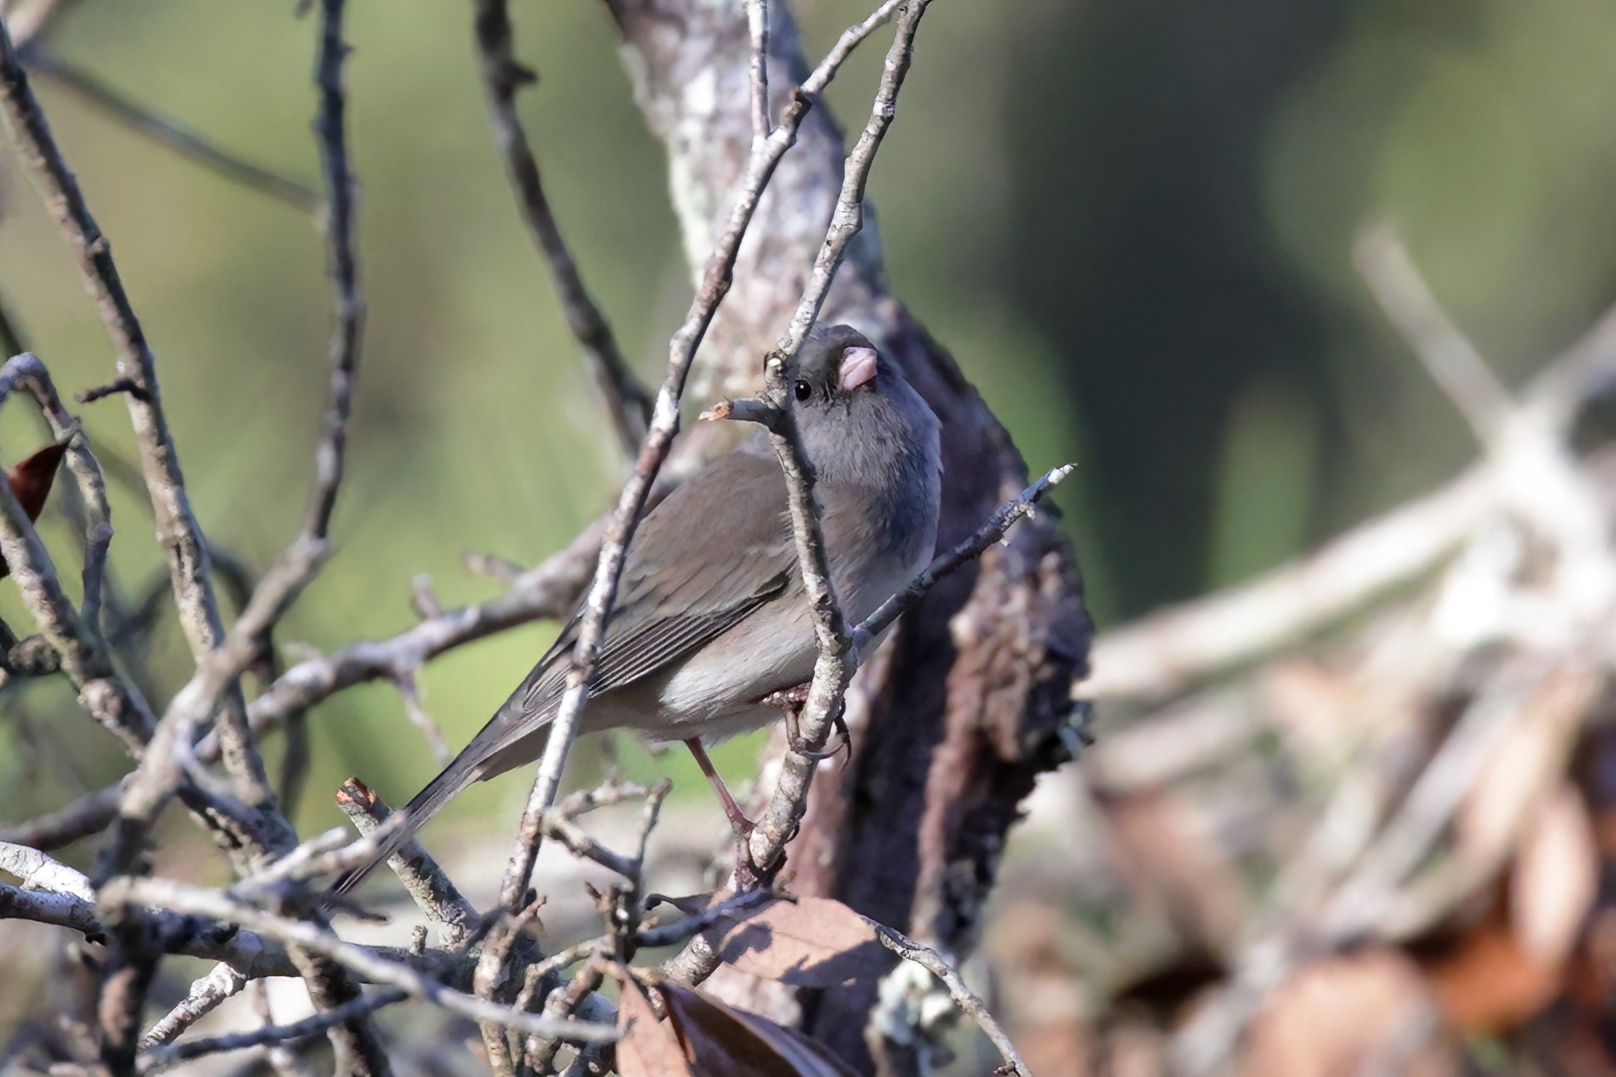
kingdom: Animalia
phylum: Chordata
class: Aves
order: Passeriformes
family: Passerellidae
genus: Junco
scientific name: Junco hyemalis
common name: Dark-eyed junco
